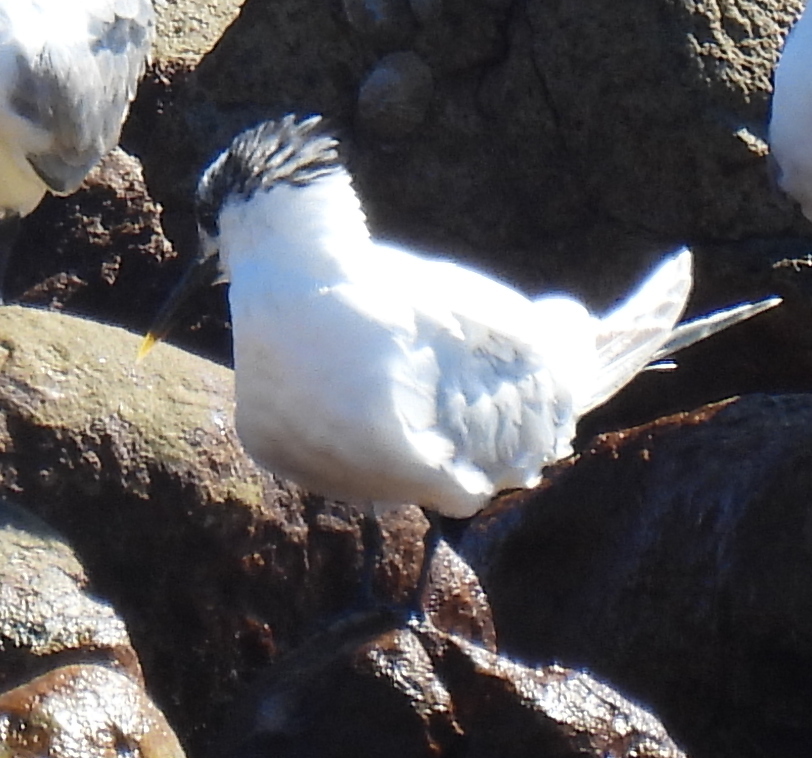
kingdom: Animalia
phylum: Chordata
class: Aves
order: Charadriiformes
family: Laridae
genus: Thalasseus
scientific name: Thalasseus sandvicensis
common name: Sandwich tern
